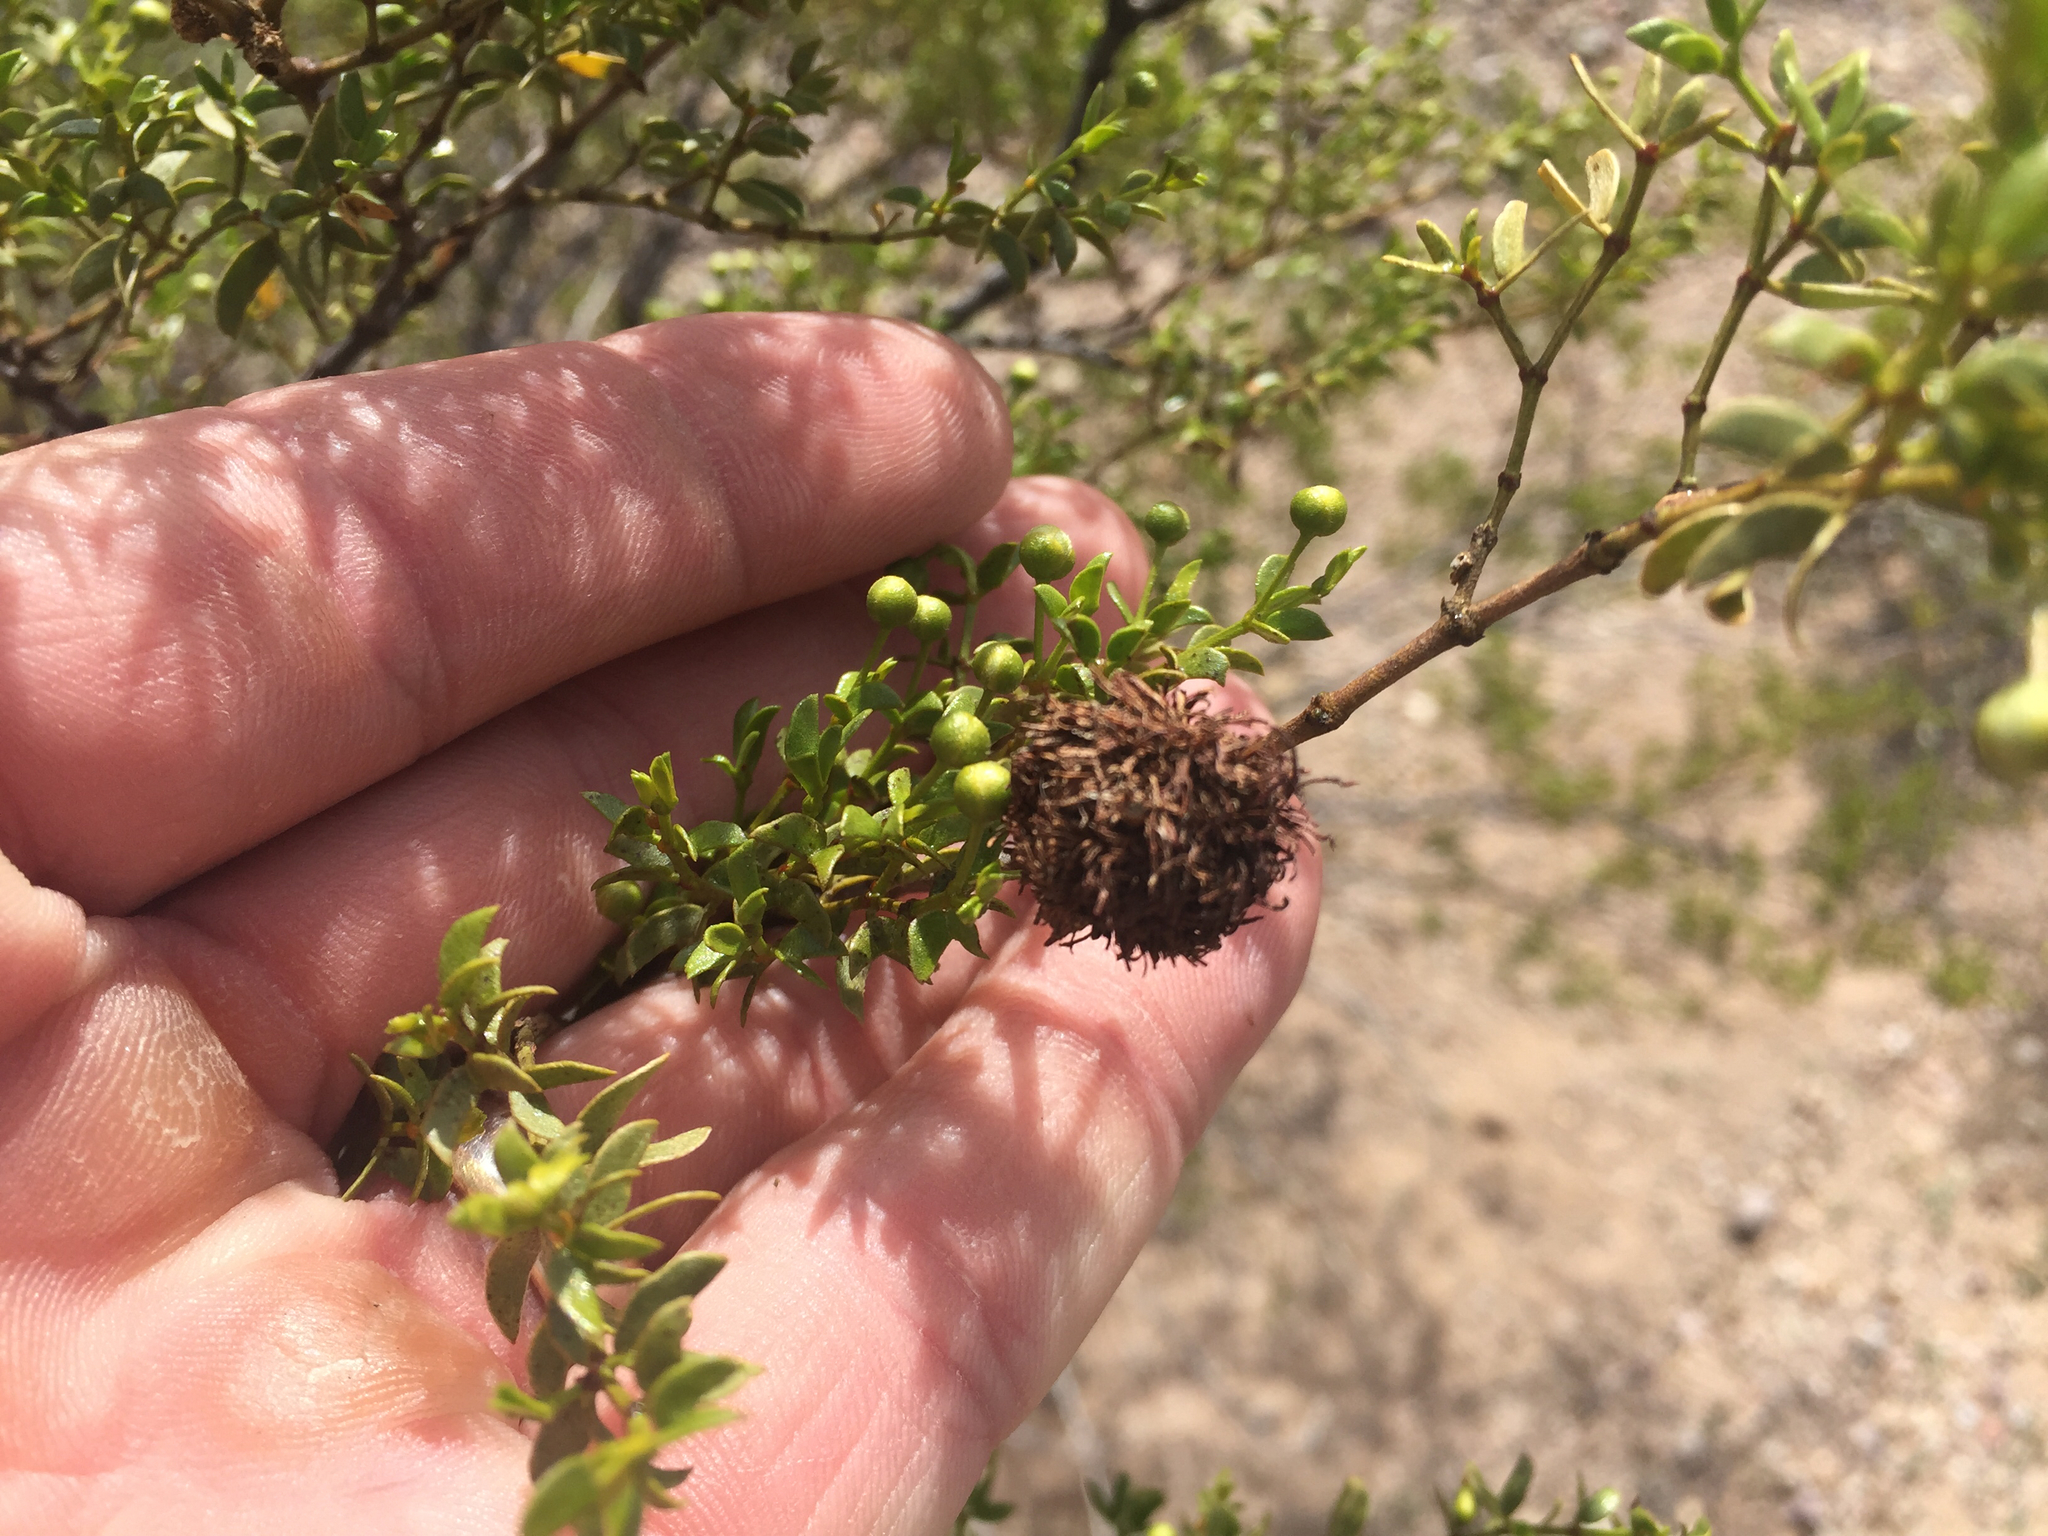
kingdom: Animalia
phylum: Arthropoda
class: Insecta
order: Diptera
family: Cecidomyiidae
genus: Asphondylia
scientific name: Asphondylia auripila
